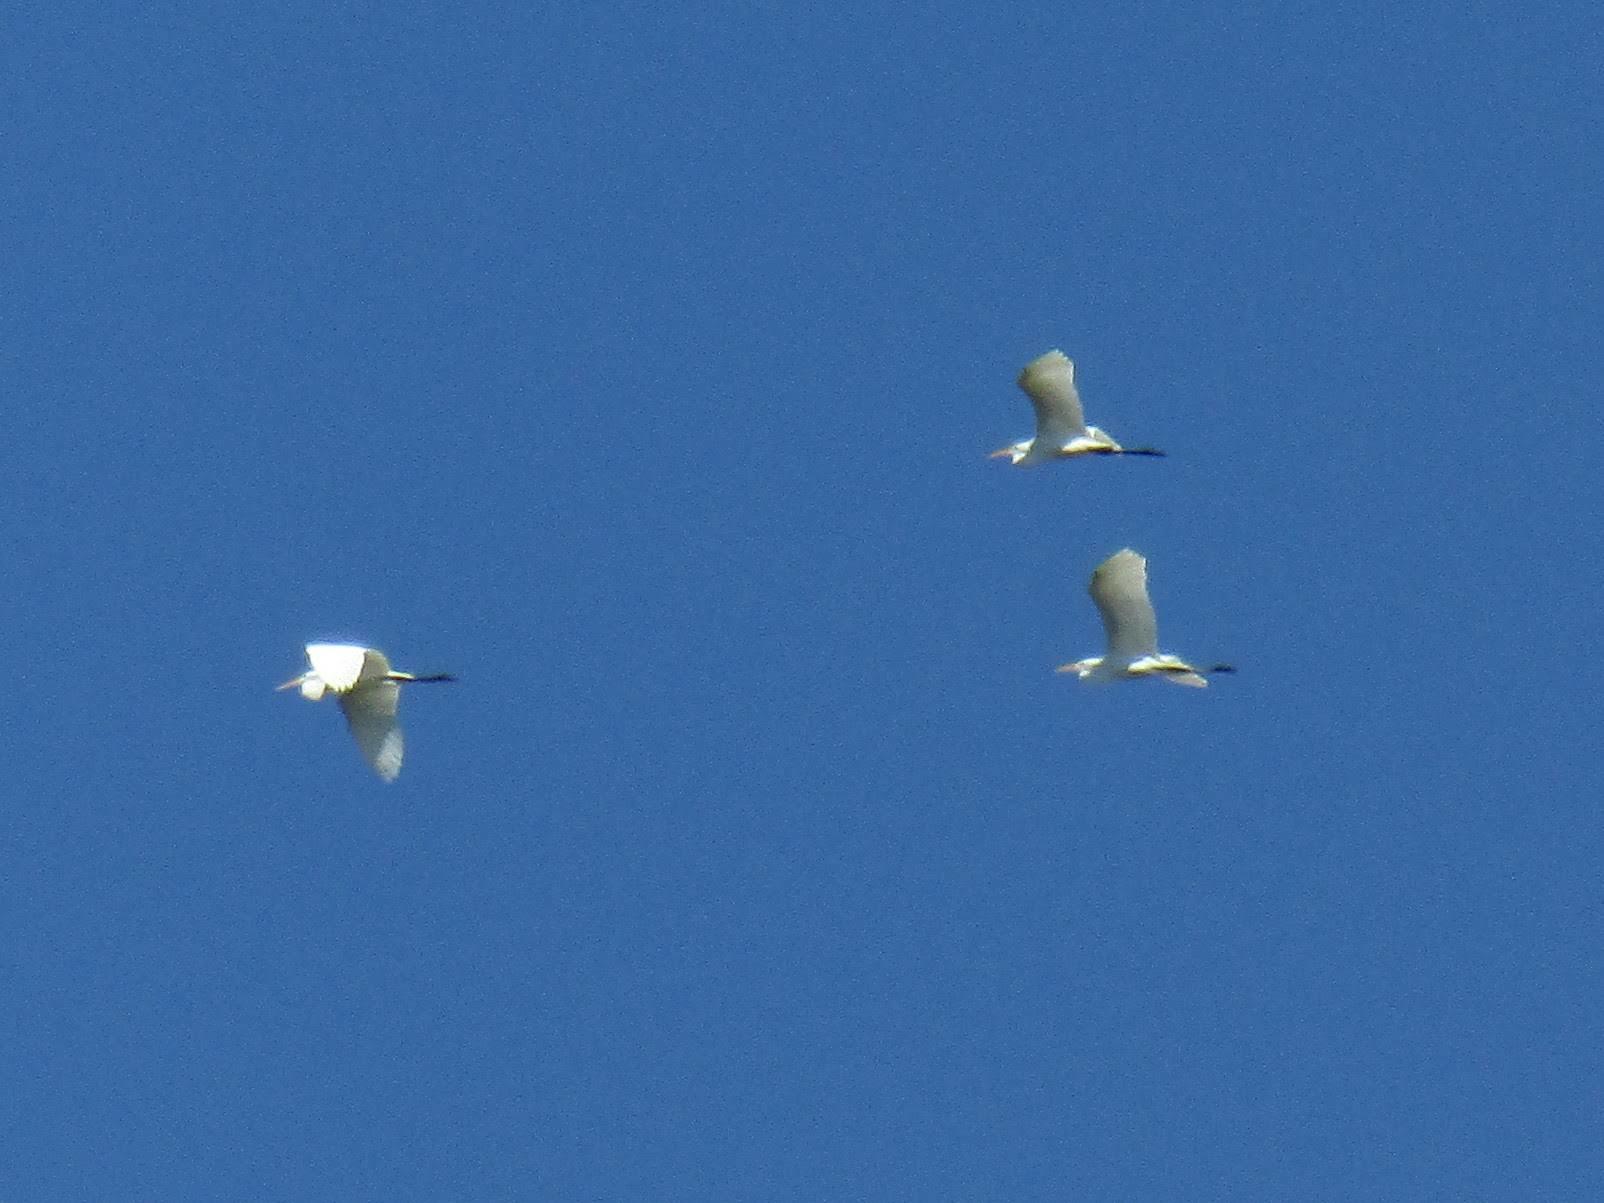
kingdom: Animalia
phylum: Chordata
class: Aves
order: Pelecaniformes
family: Ardeidae
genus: Ardea
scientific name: Ardea alba
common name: Great egret
